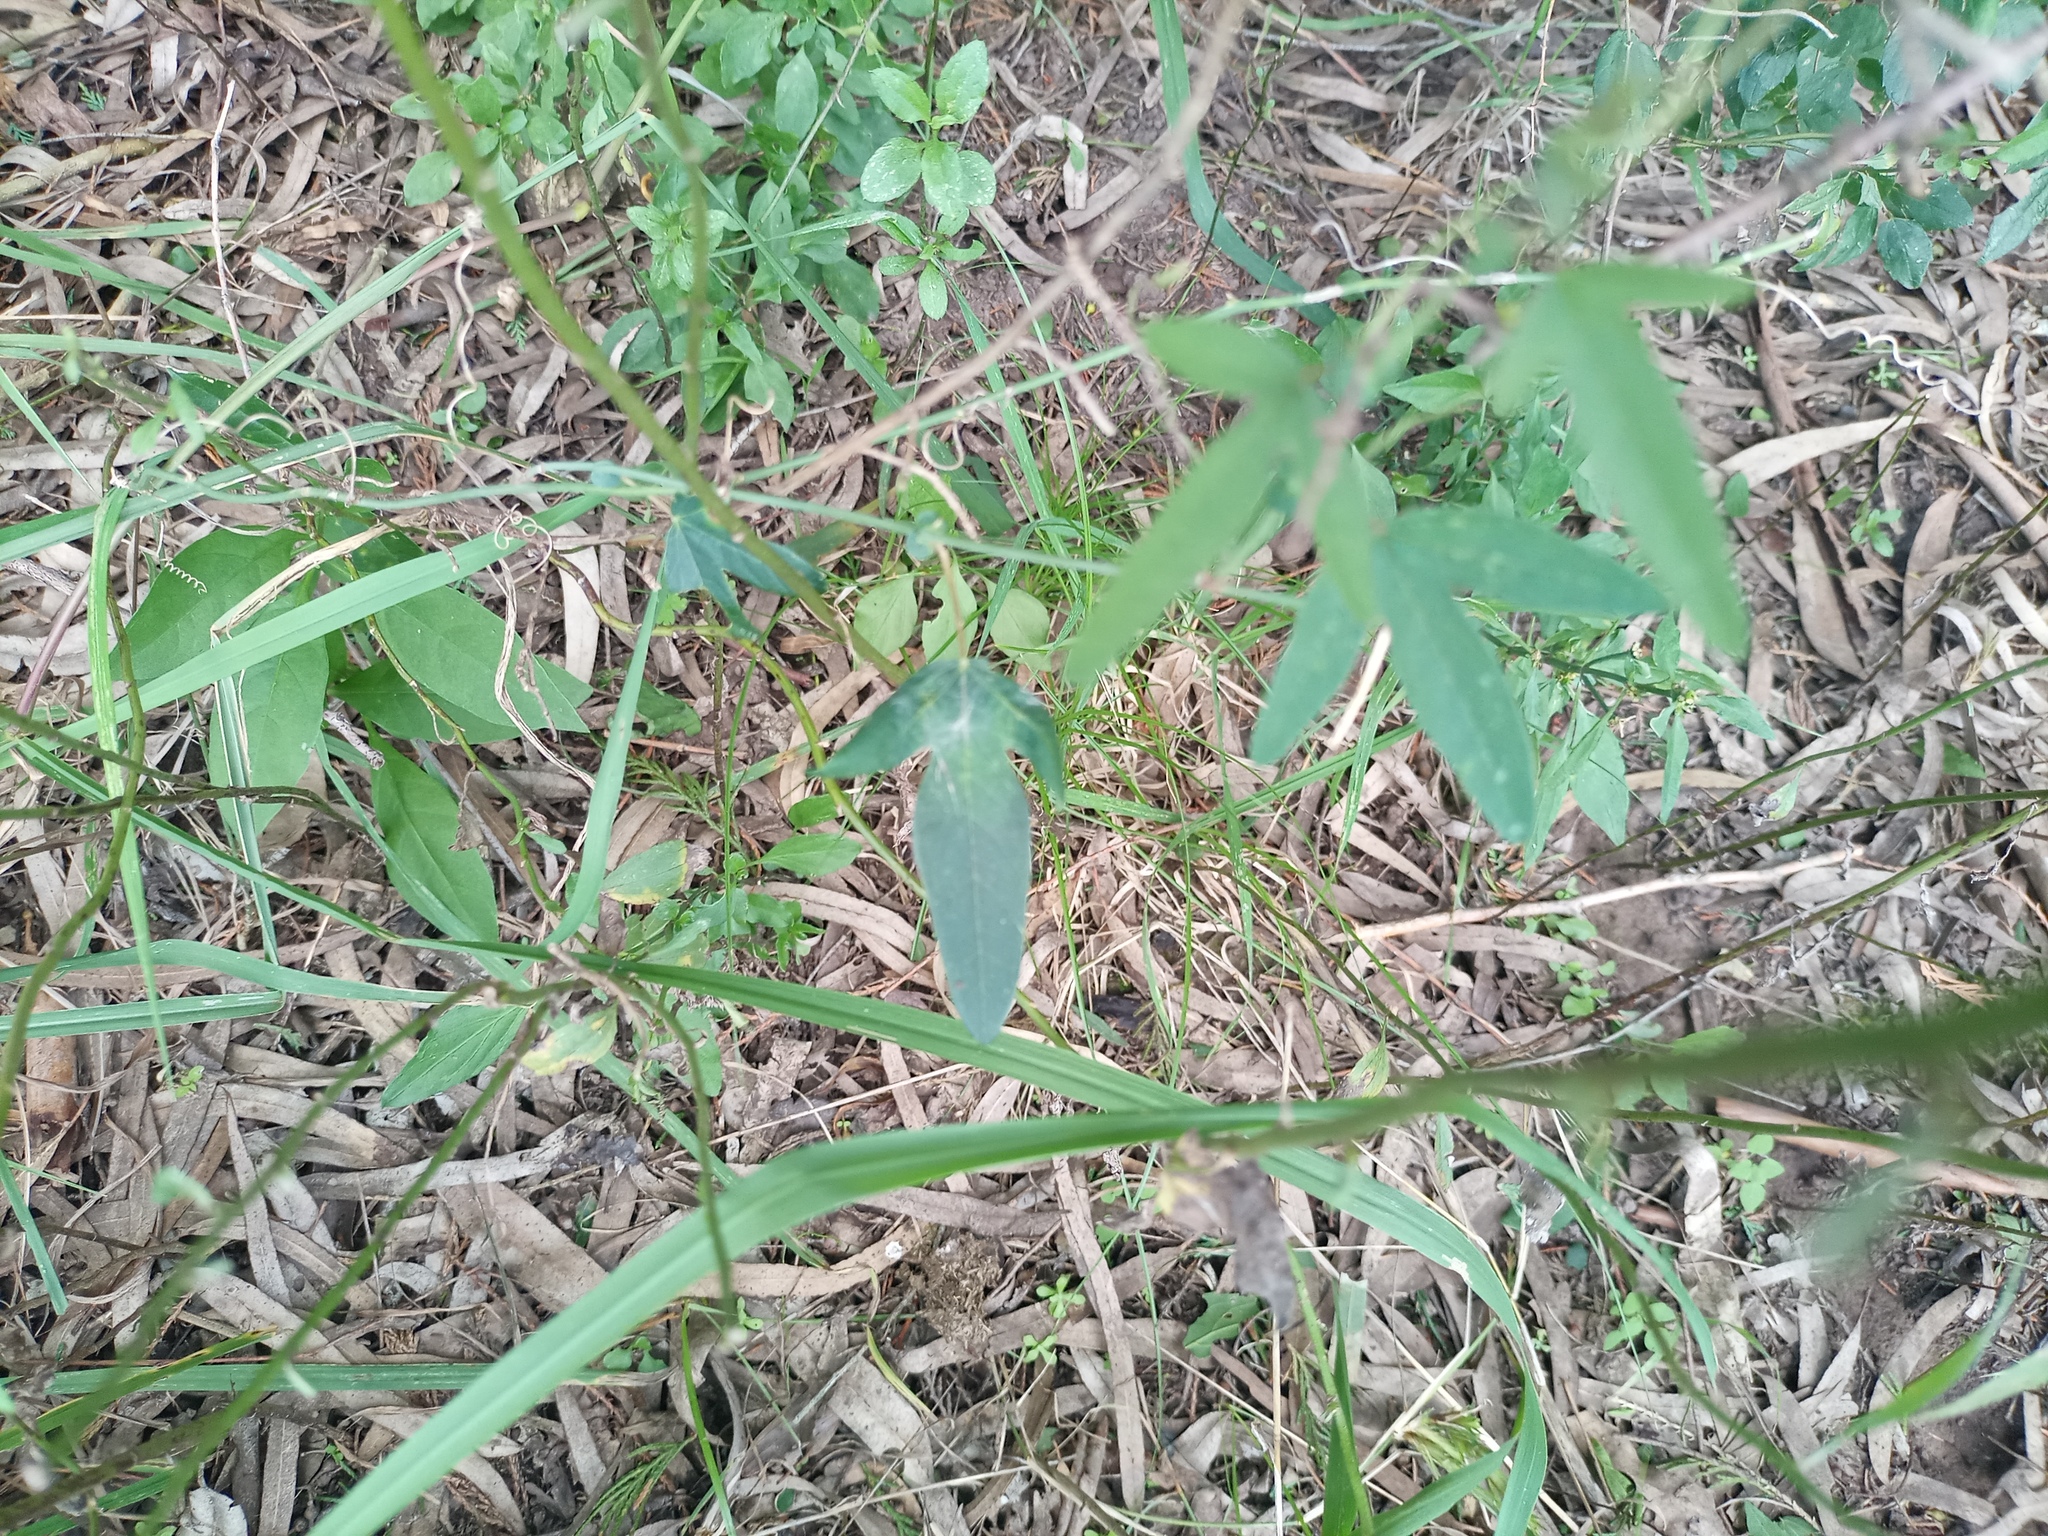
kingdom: Plantae
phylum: Tracheophyta
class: Magnoliopsida
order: Malpighiales
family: Passifloraceae
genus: Passiflora
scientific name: Passiflora caerulea
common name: Blue passionflower
